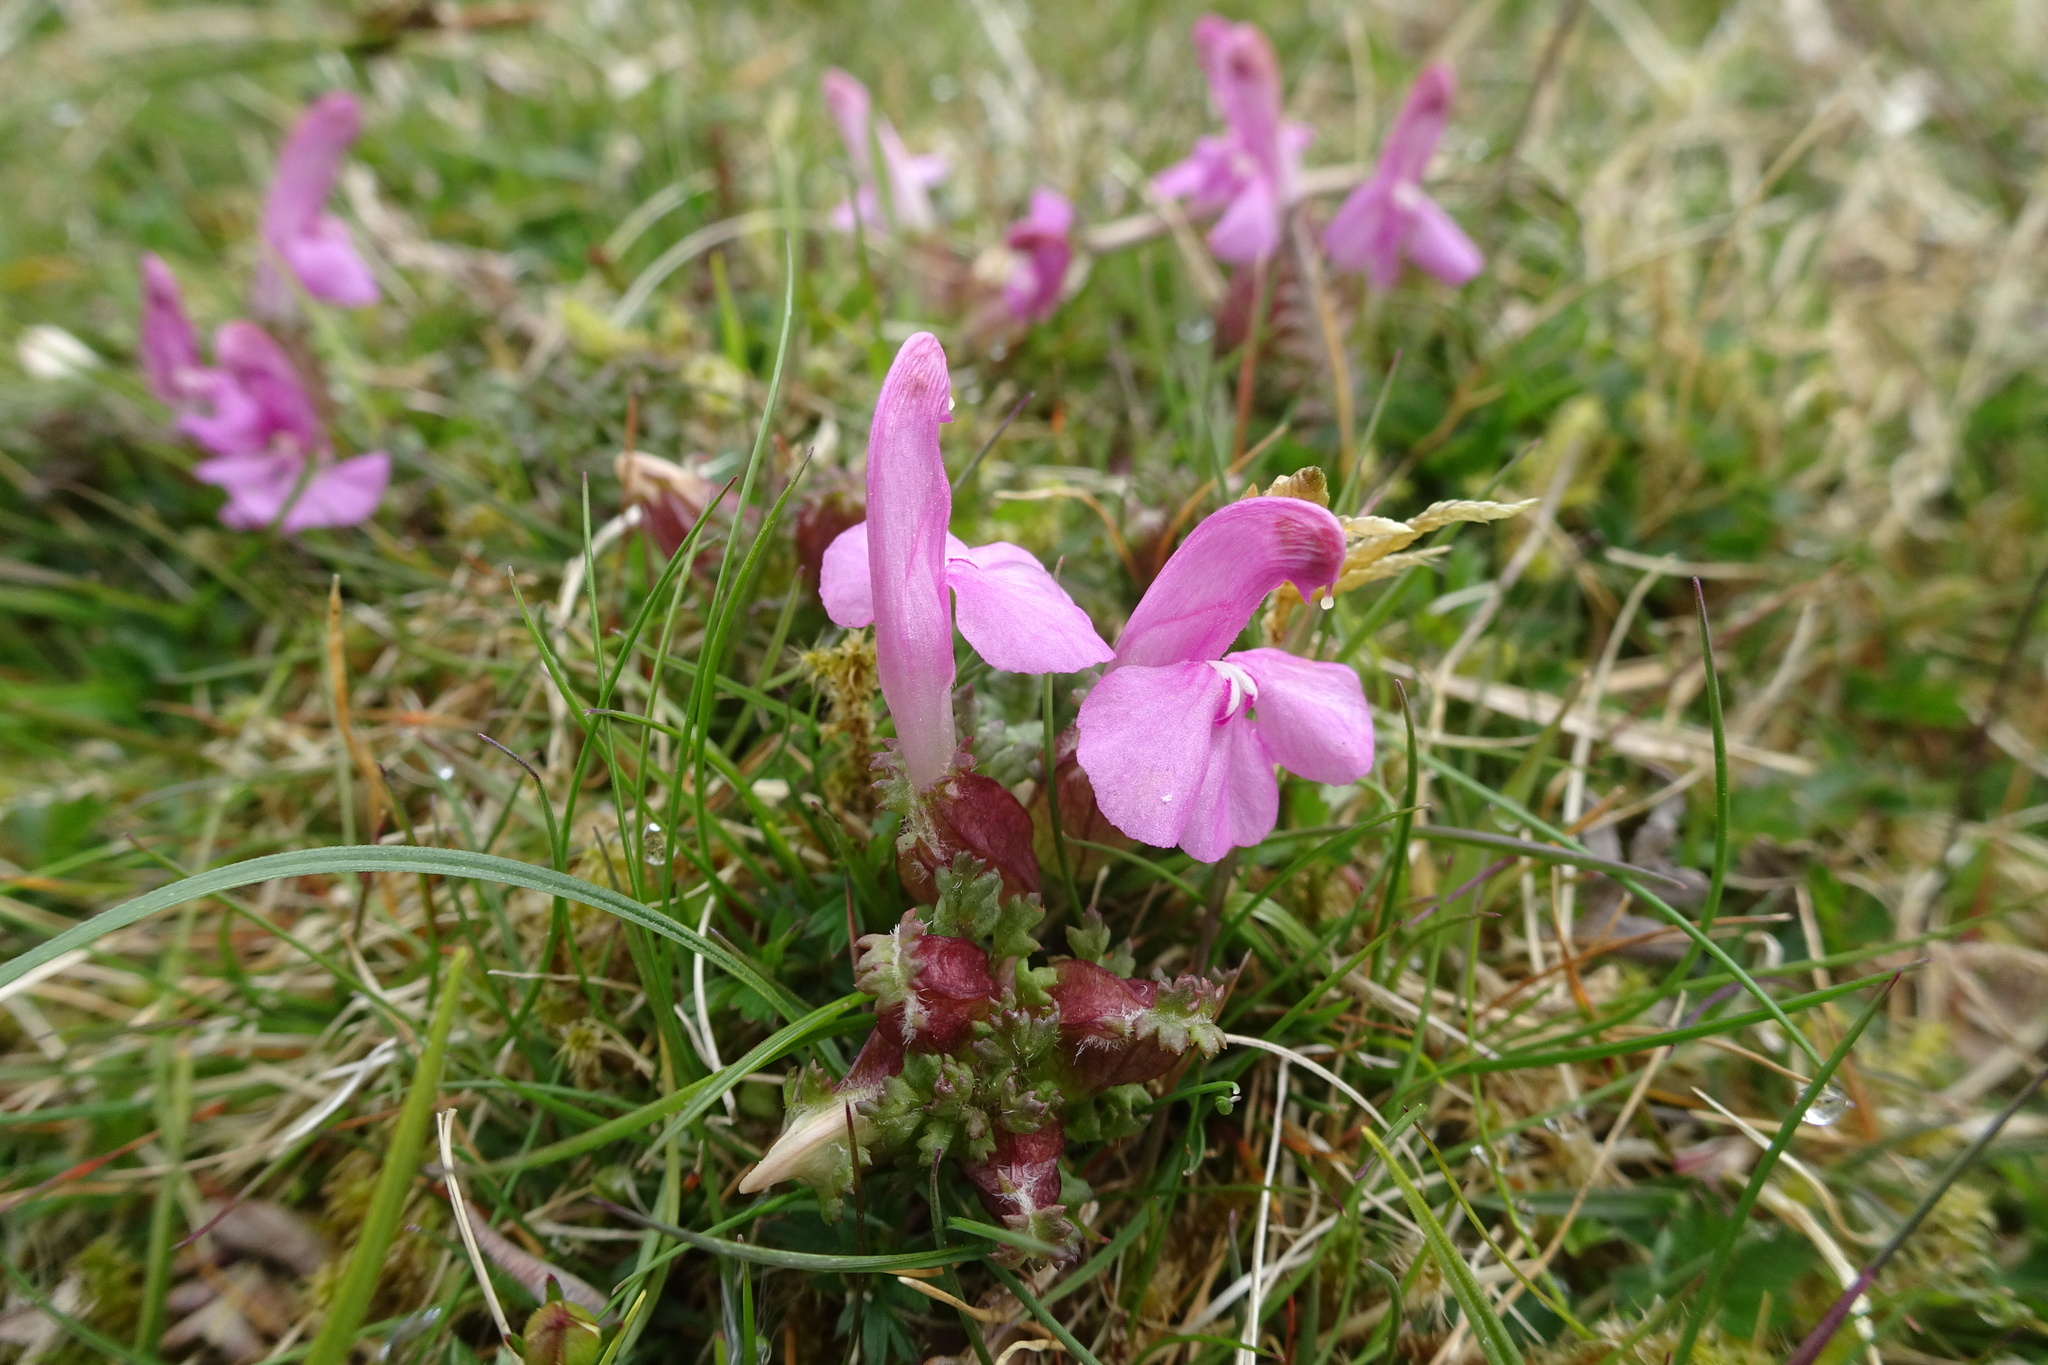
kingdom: Plantae
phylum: Tracheophyta
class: Magnoliopsida
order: Lamiales
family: Orobanchaceae
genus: Pedicularis
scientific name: Pedicularis sylvatica
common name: Lousewort
